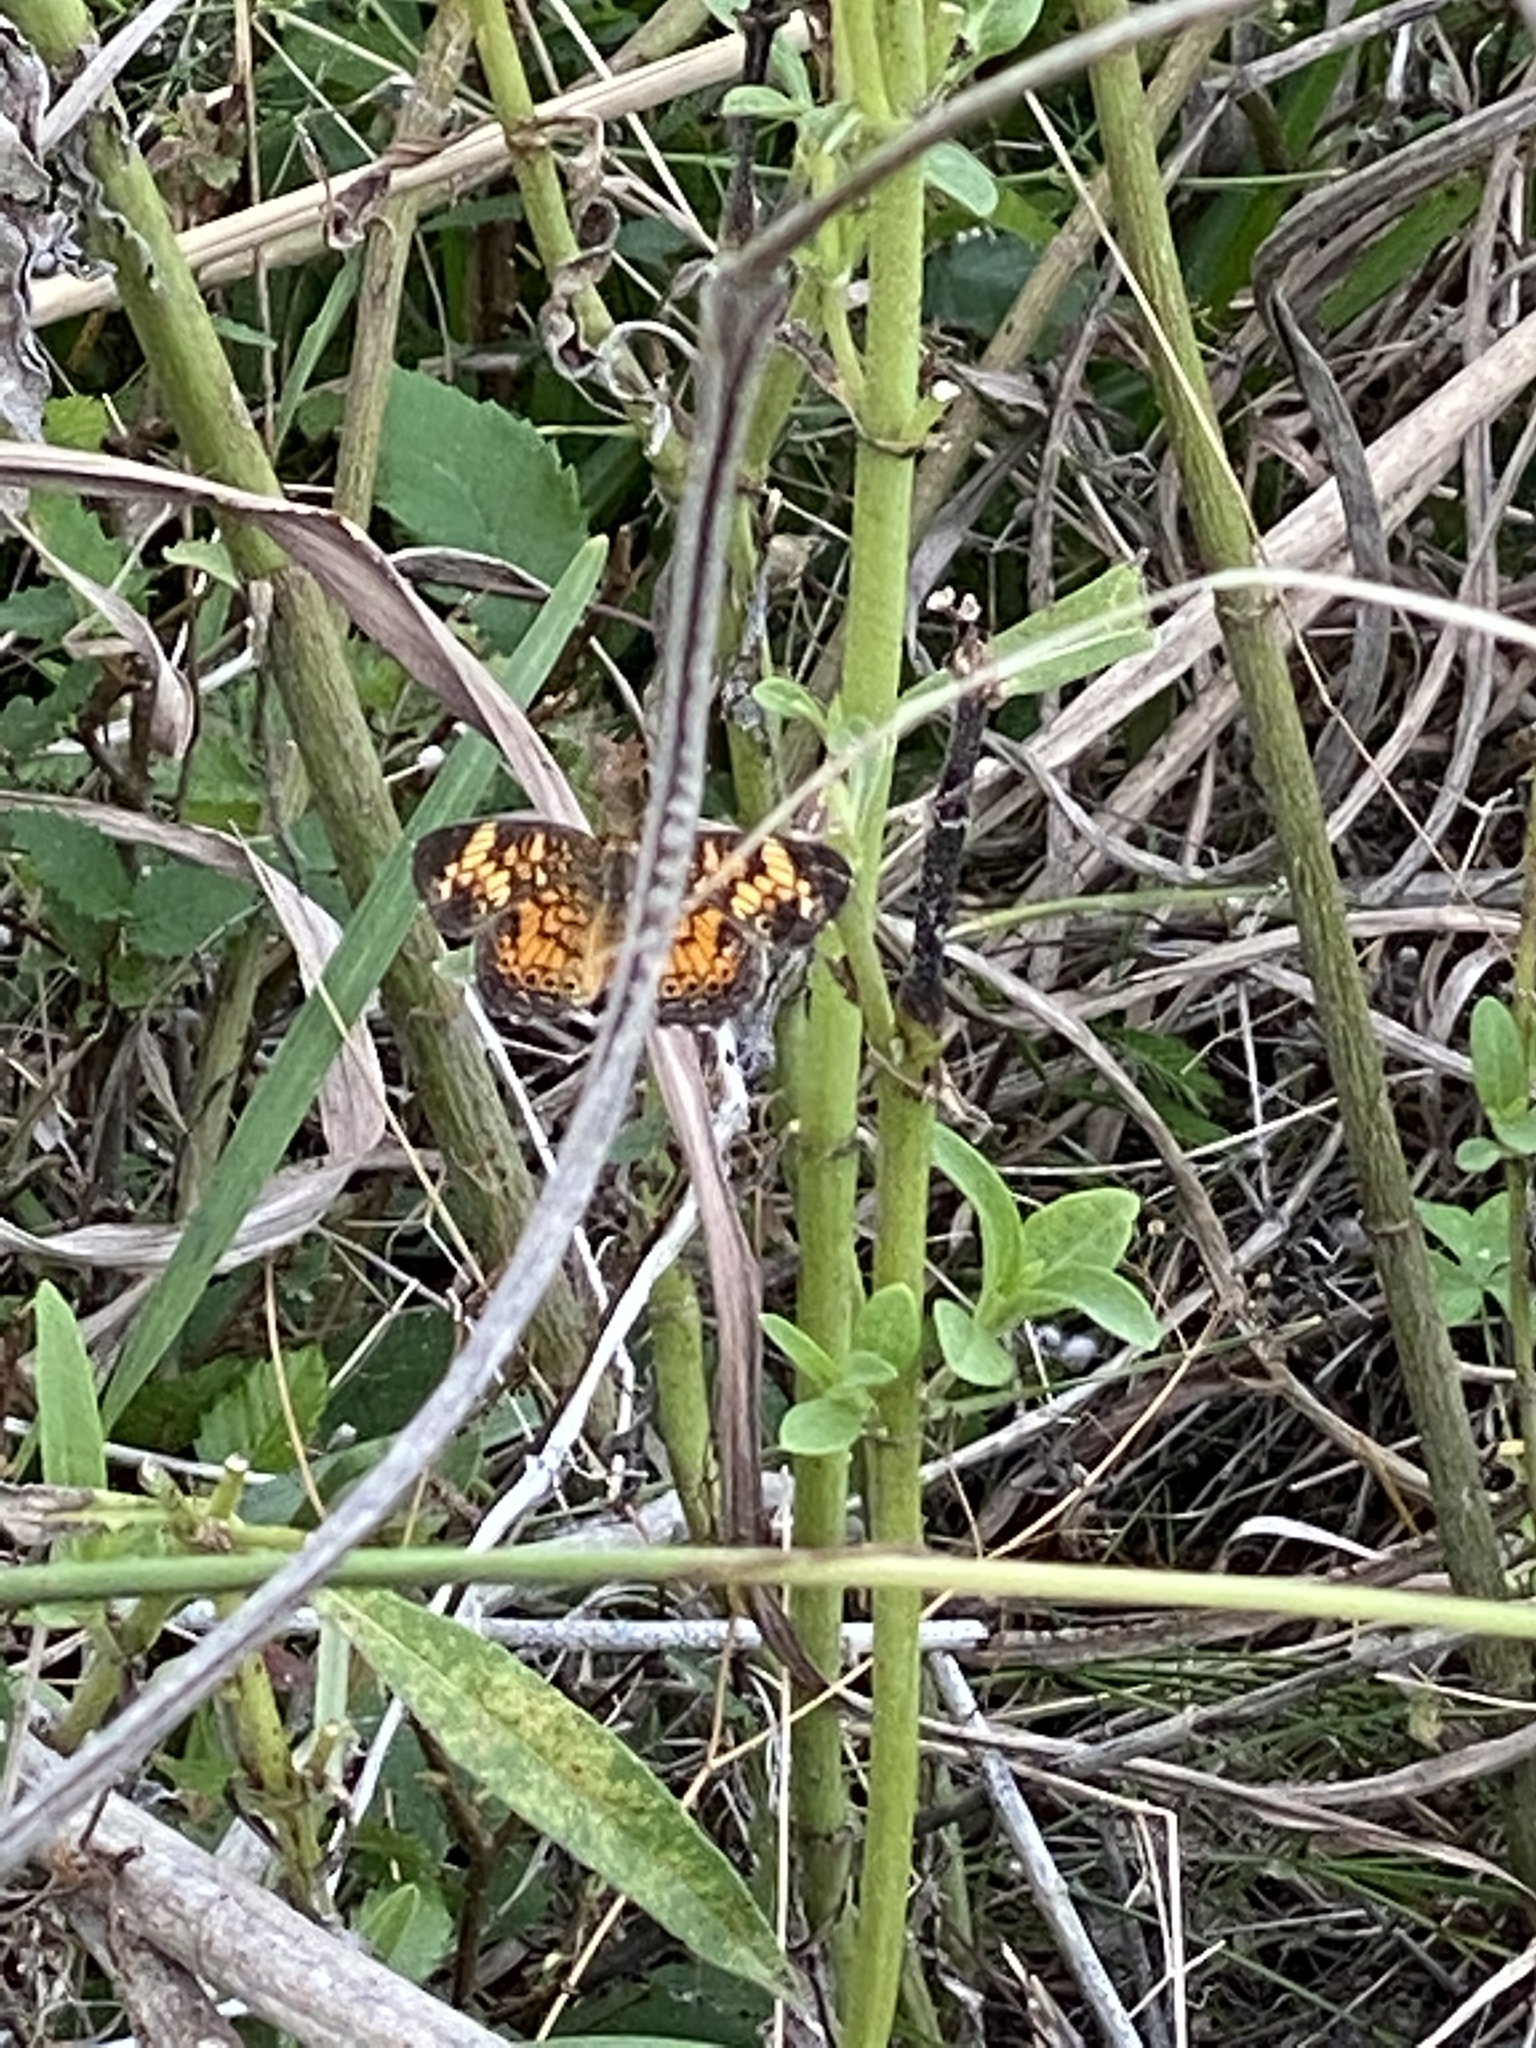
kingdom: Animalia
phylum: Arthropoda
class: Insecta
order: Lepidoptera
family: Nymphalidae
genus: Phyciodes
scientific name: Phyciodes tharos
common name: Pearl crescent
